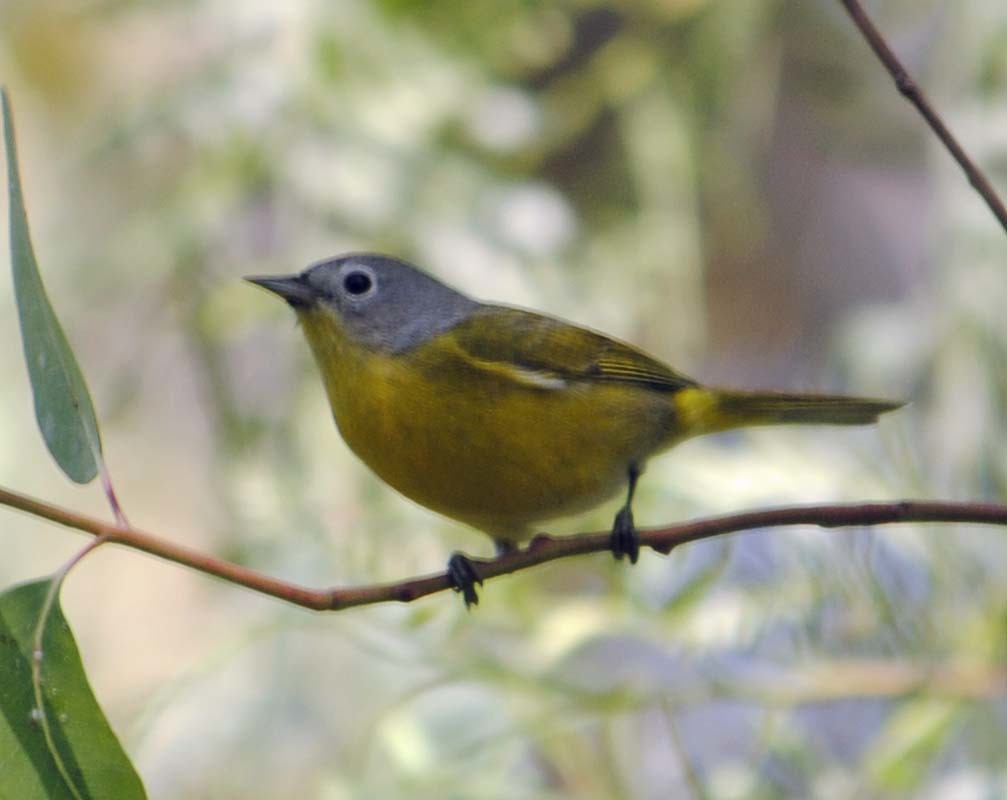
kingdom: Animalia
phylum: Chordata
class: Aves
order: Passeriformes
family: Parulidae
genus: Leiothlypis
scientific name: Leiothlypis ruficapilla
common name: Nashville warbler
